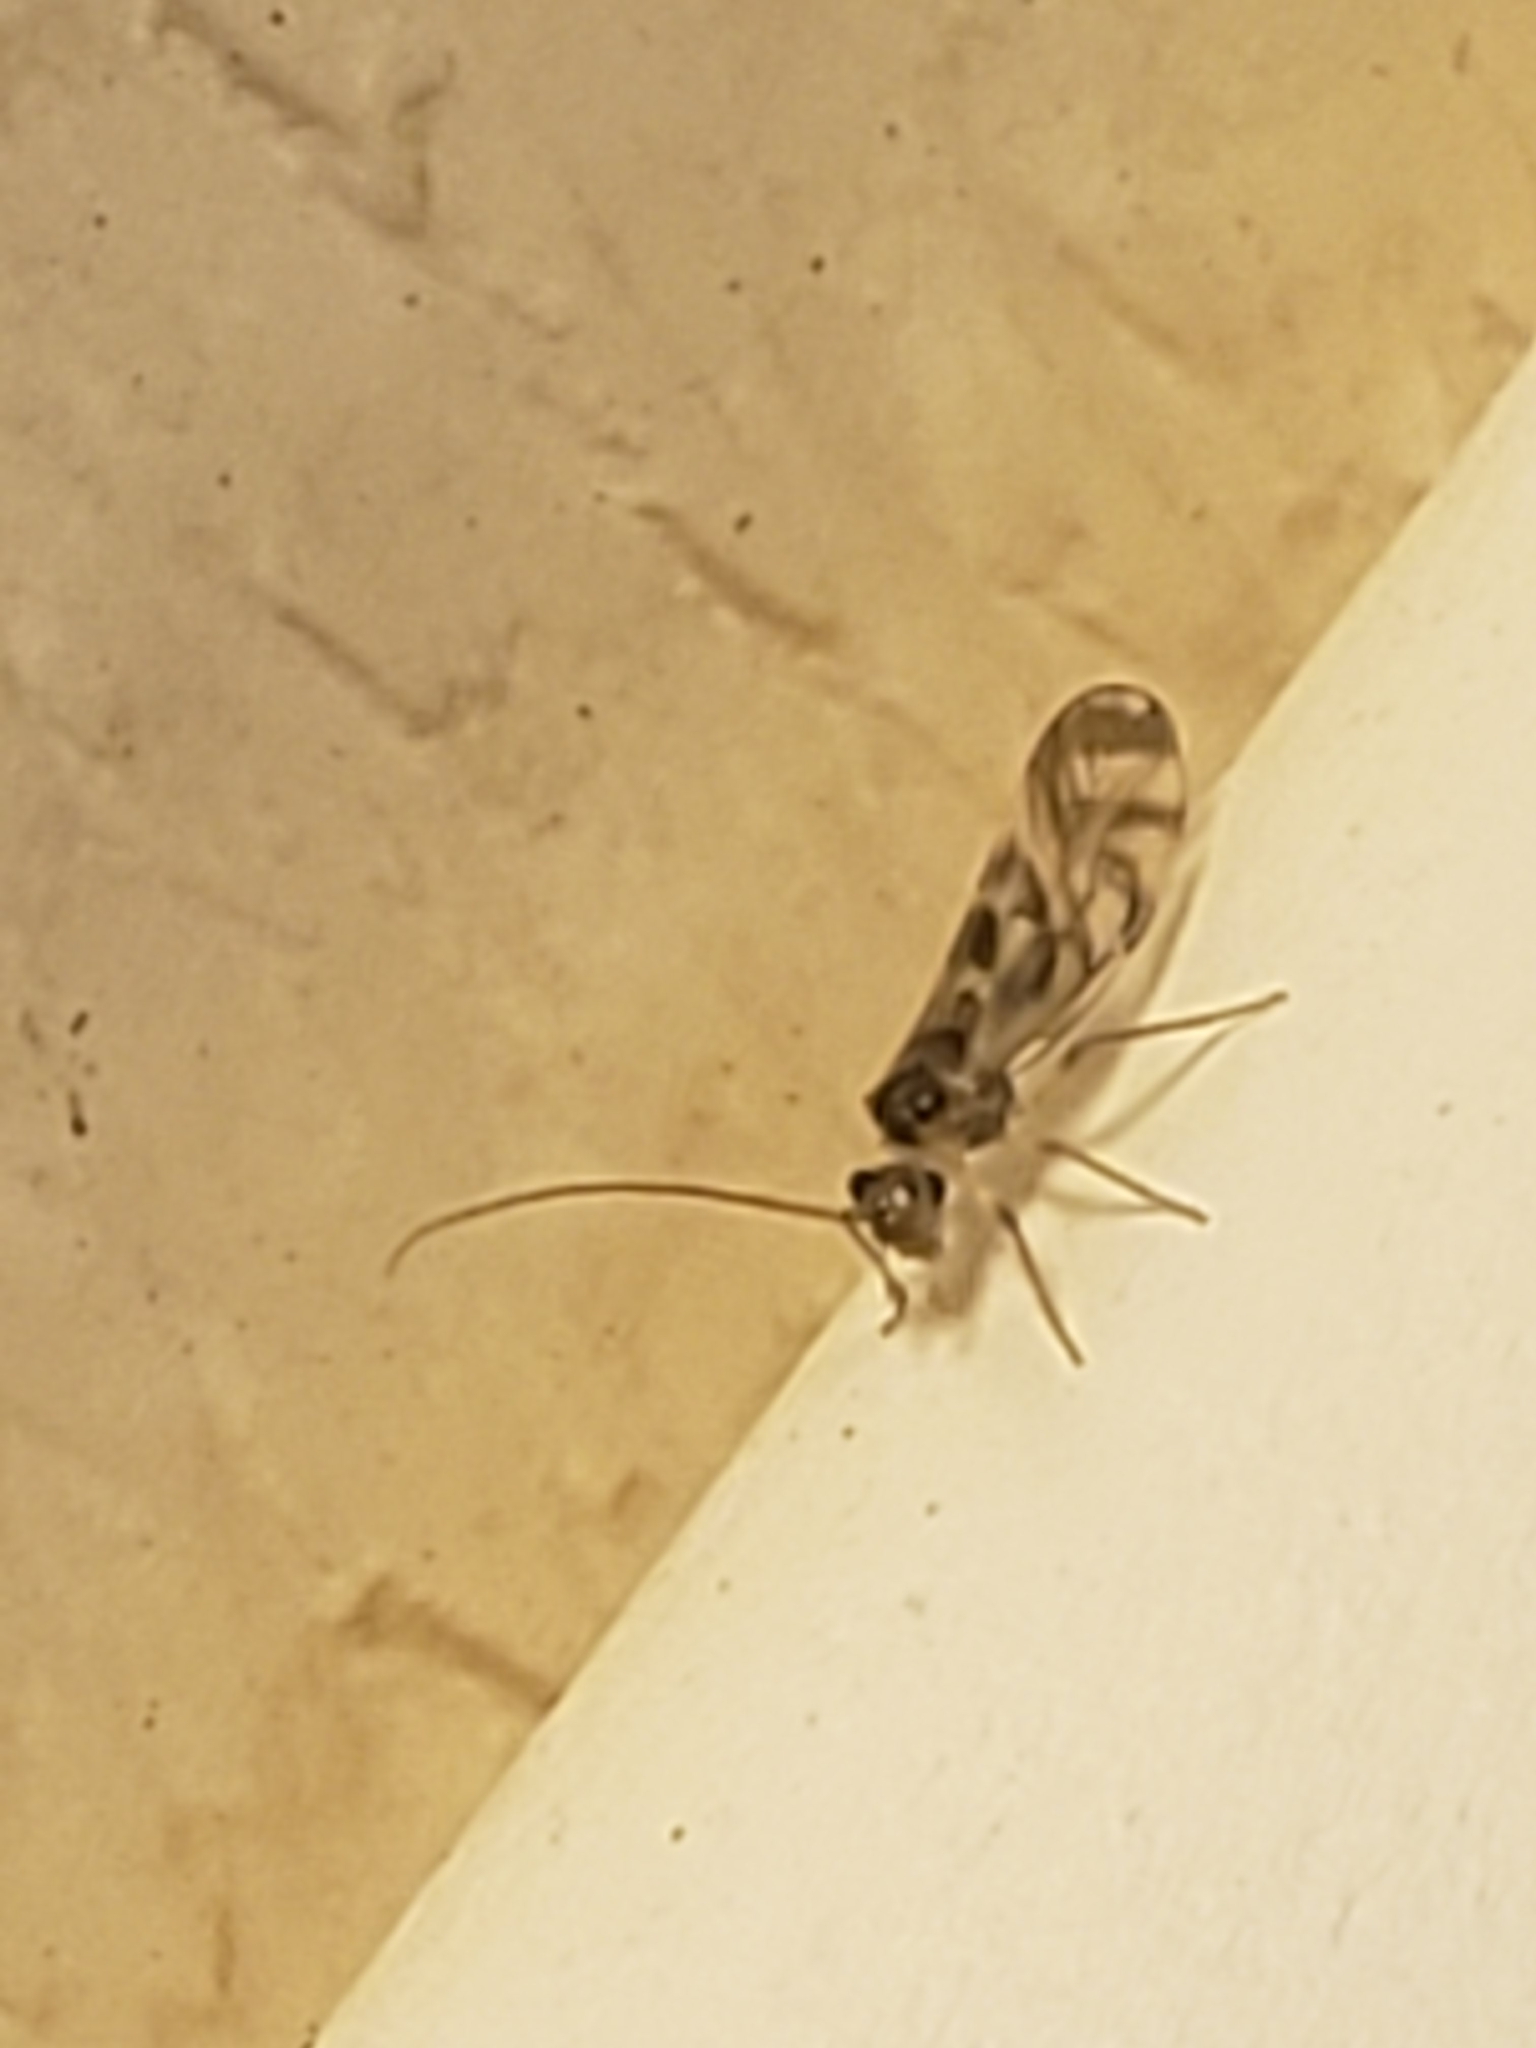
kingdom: Animalia
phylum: Arthropoda
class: Insecta
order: Psocodea
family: Stenopsocidae
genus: Graphopsocus
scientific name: Graphopsocus cruciatus
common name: Lizard bark louse
